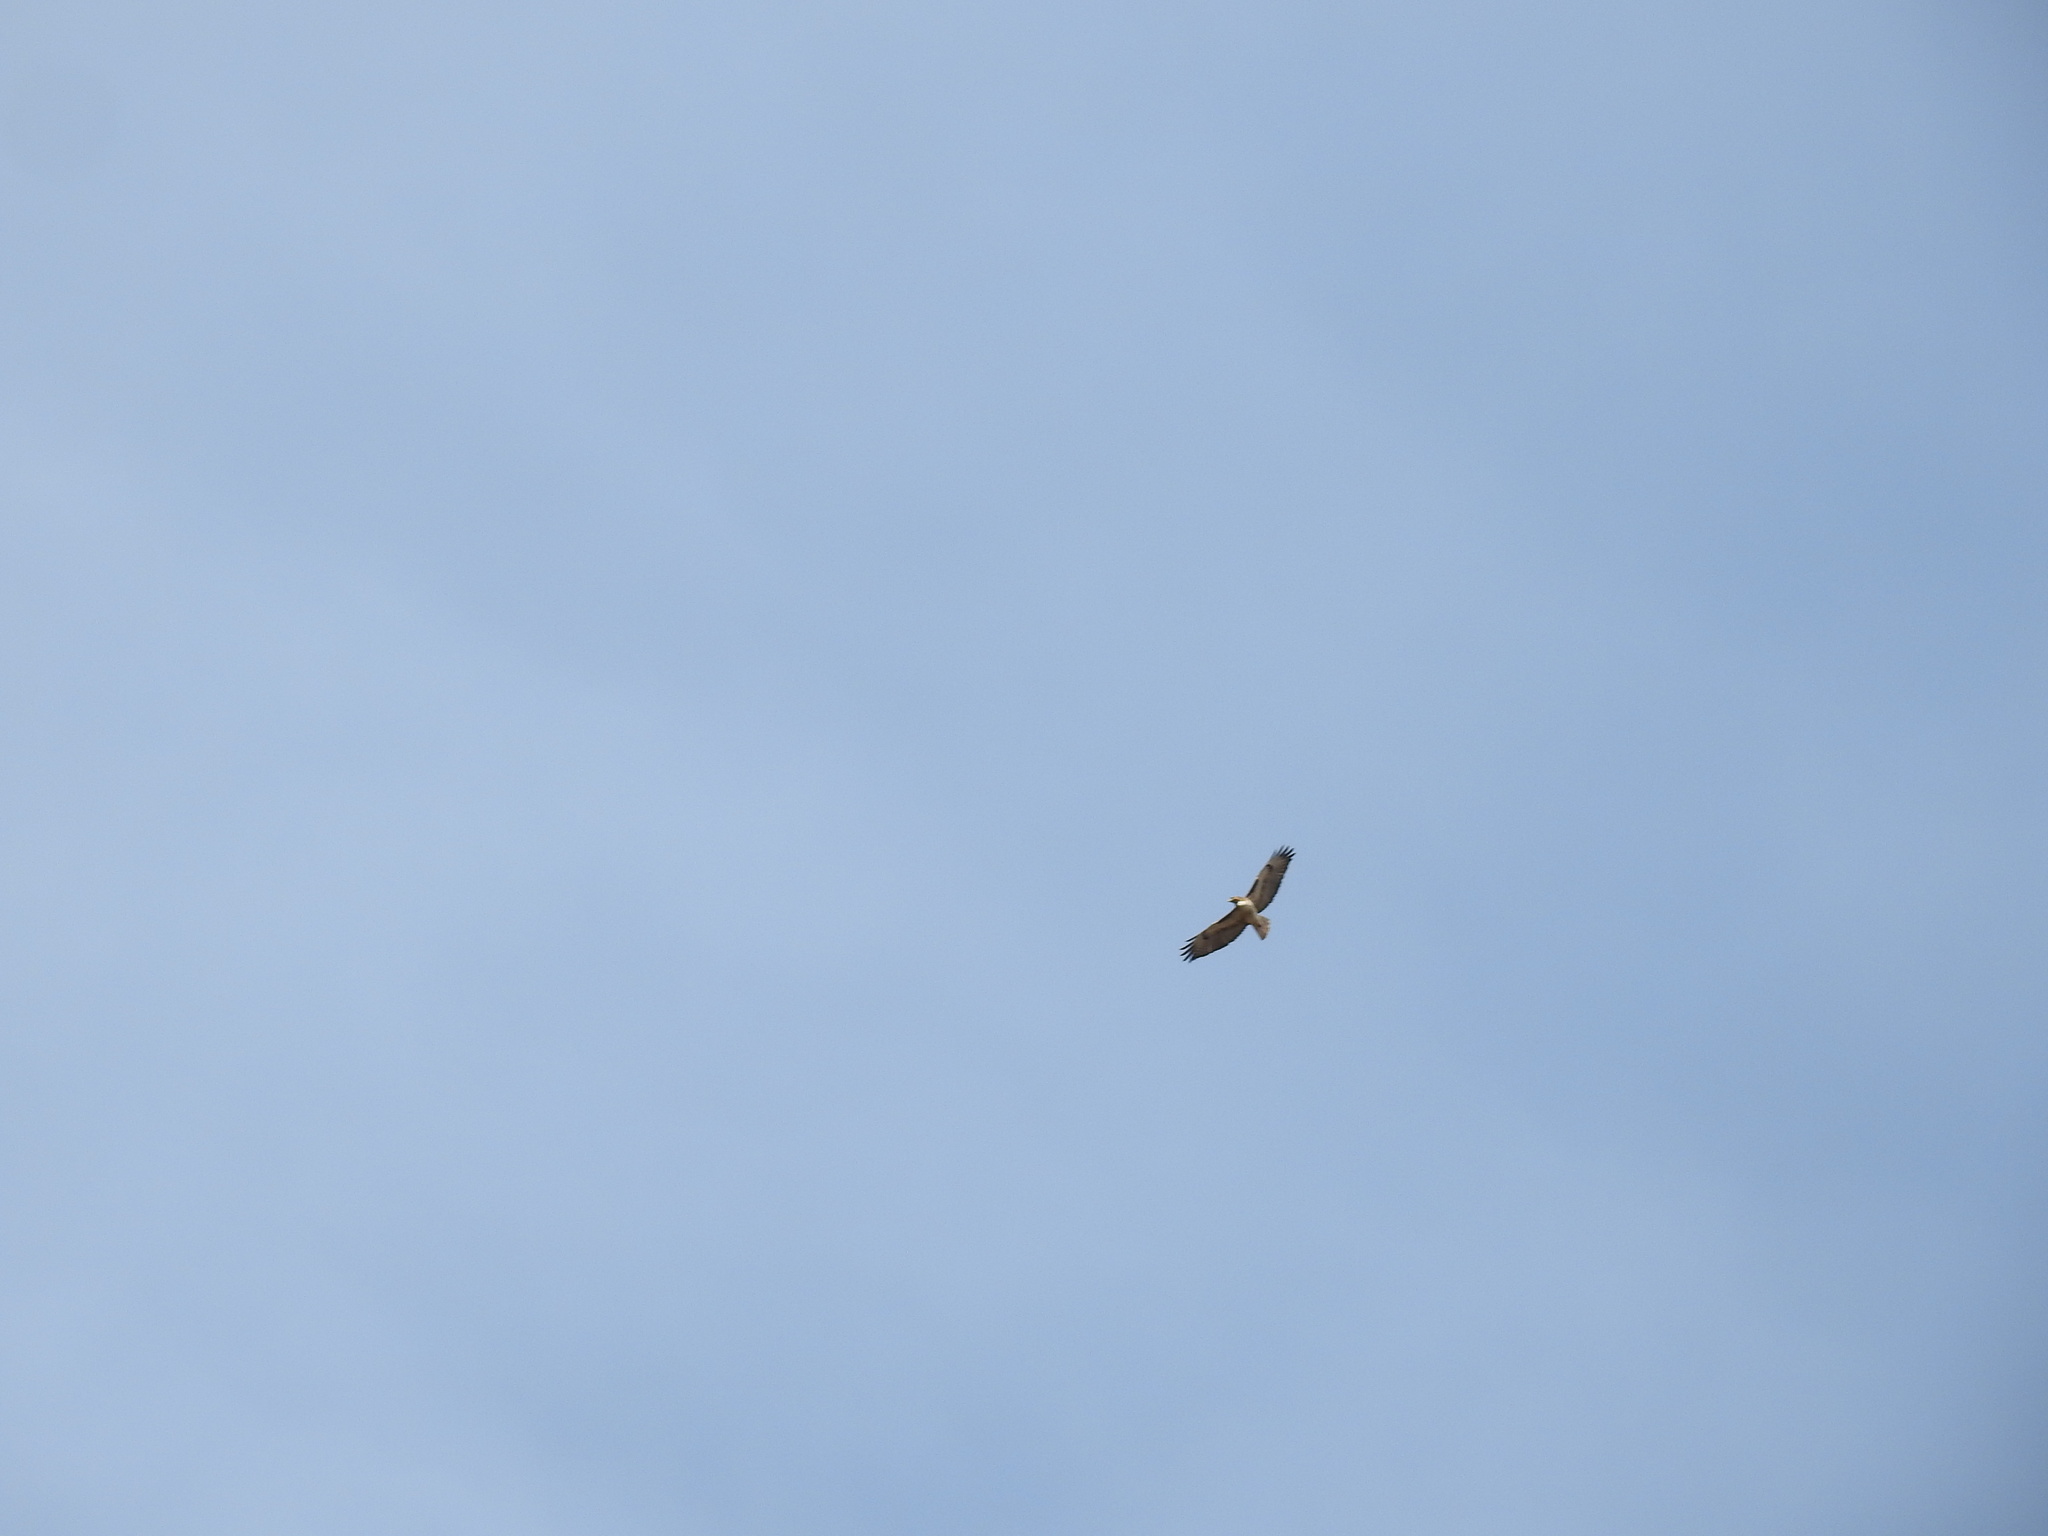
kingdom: Animalia
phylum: Chordata
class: Aves
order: Accipitriformes
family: Accipitridae
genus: Buteo
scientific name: Buteo jamaicensis
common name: Red-tailed hawk
